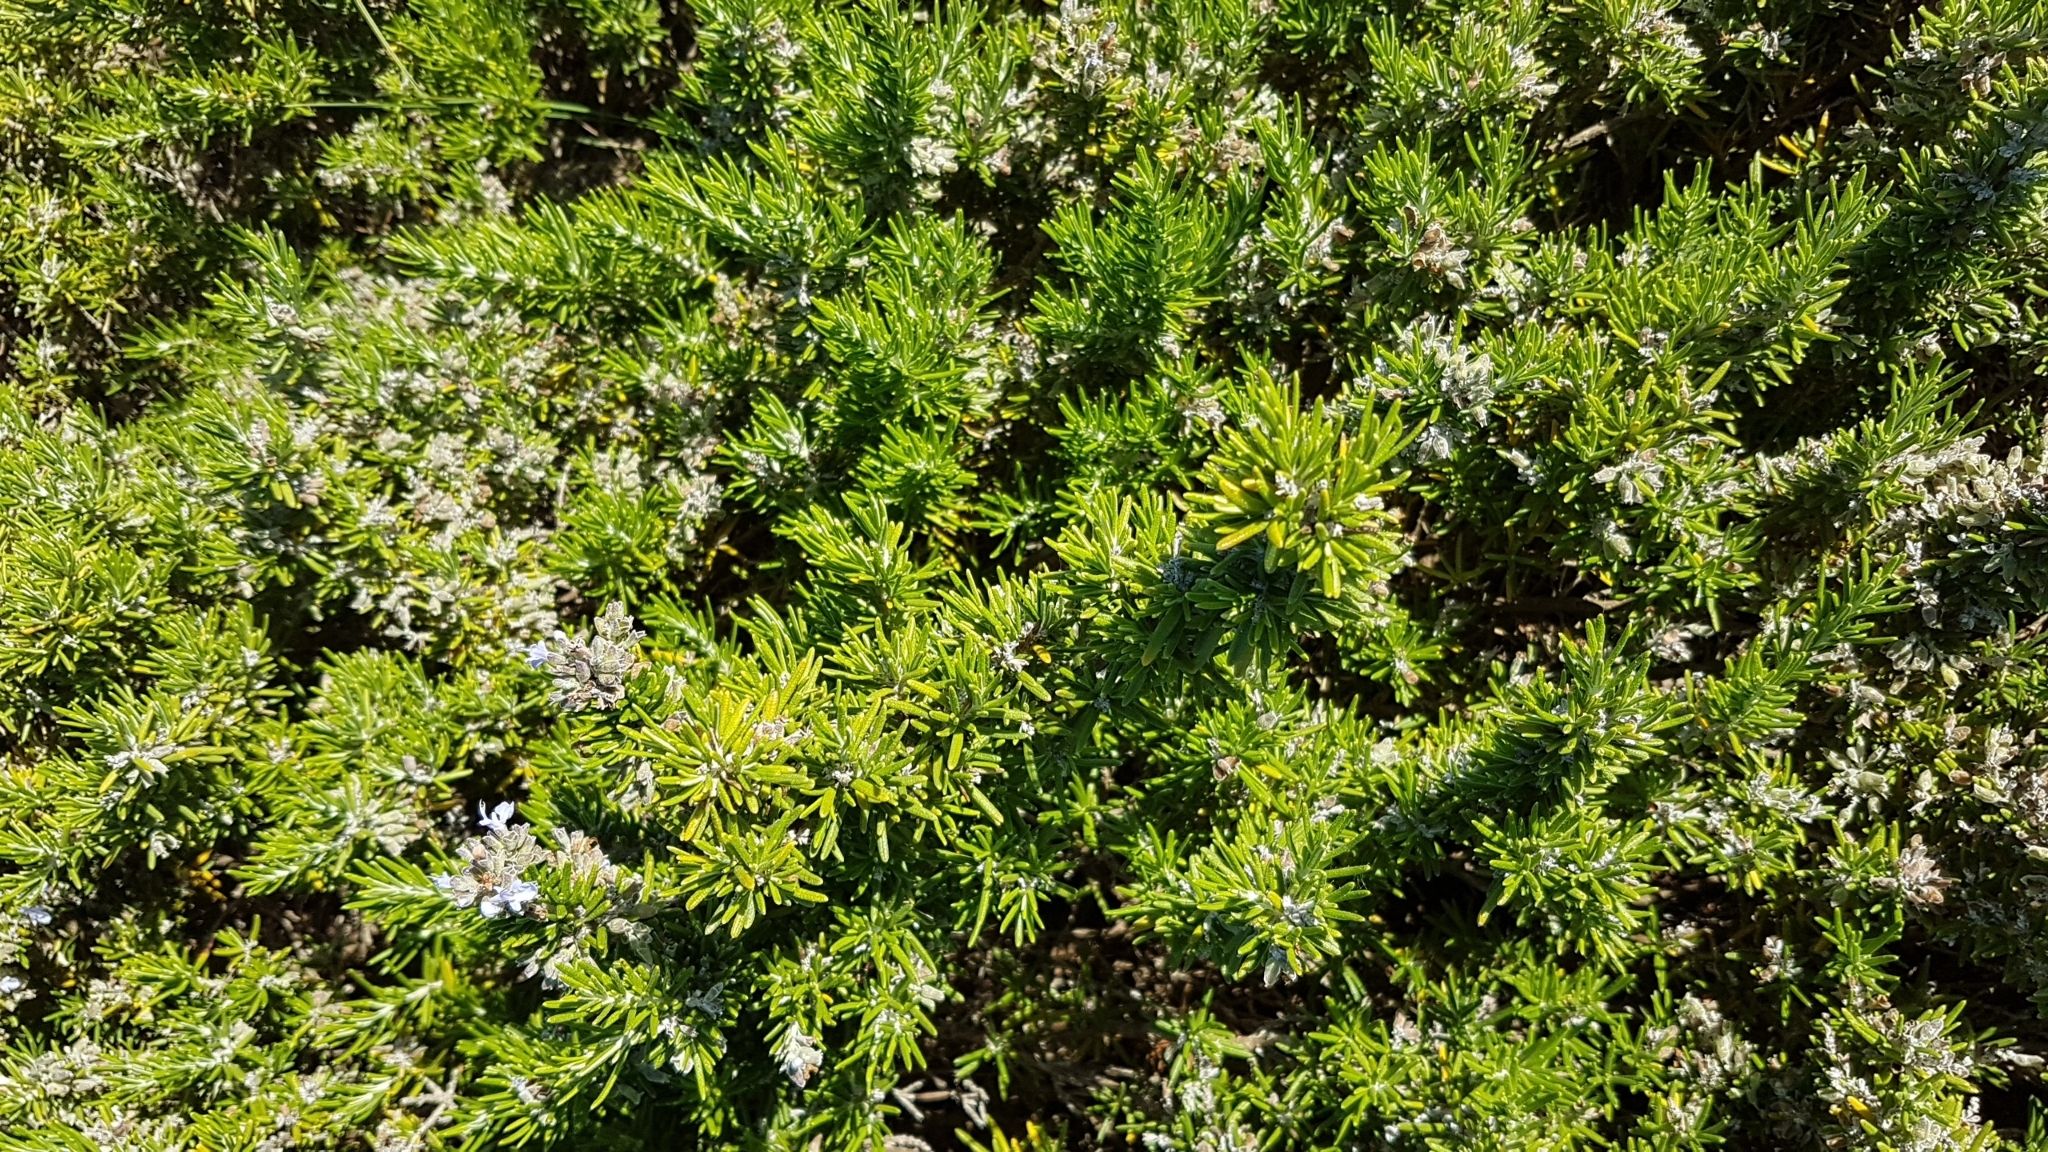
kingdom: Plantae
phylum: Tracheophyta
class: Magnoliopsida
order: Lamiales
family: Lamiaceae
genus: Salvia
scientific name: Salvia rosmarinus
